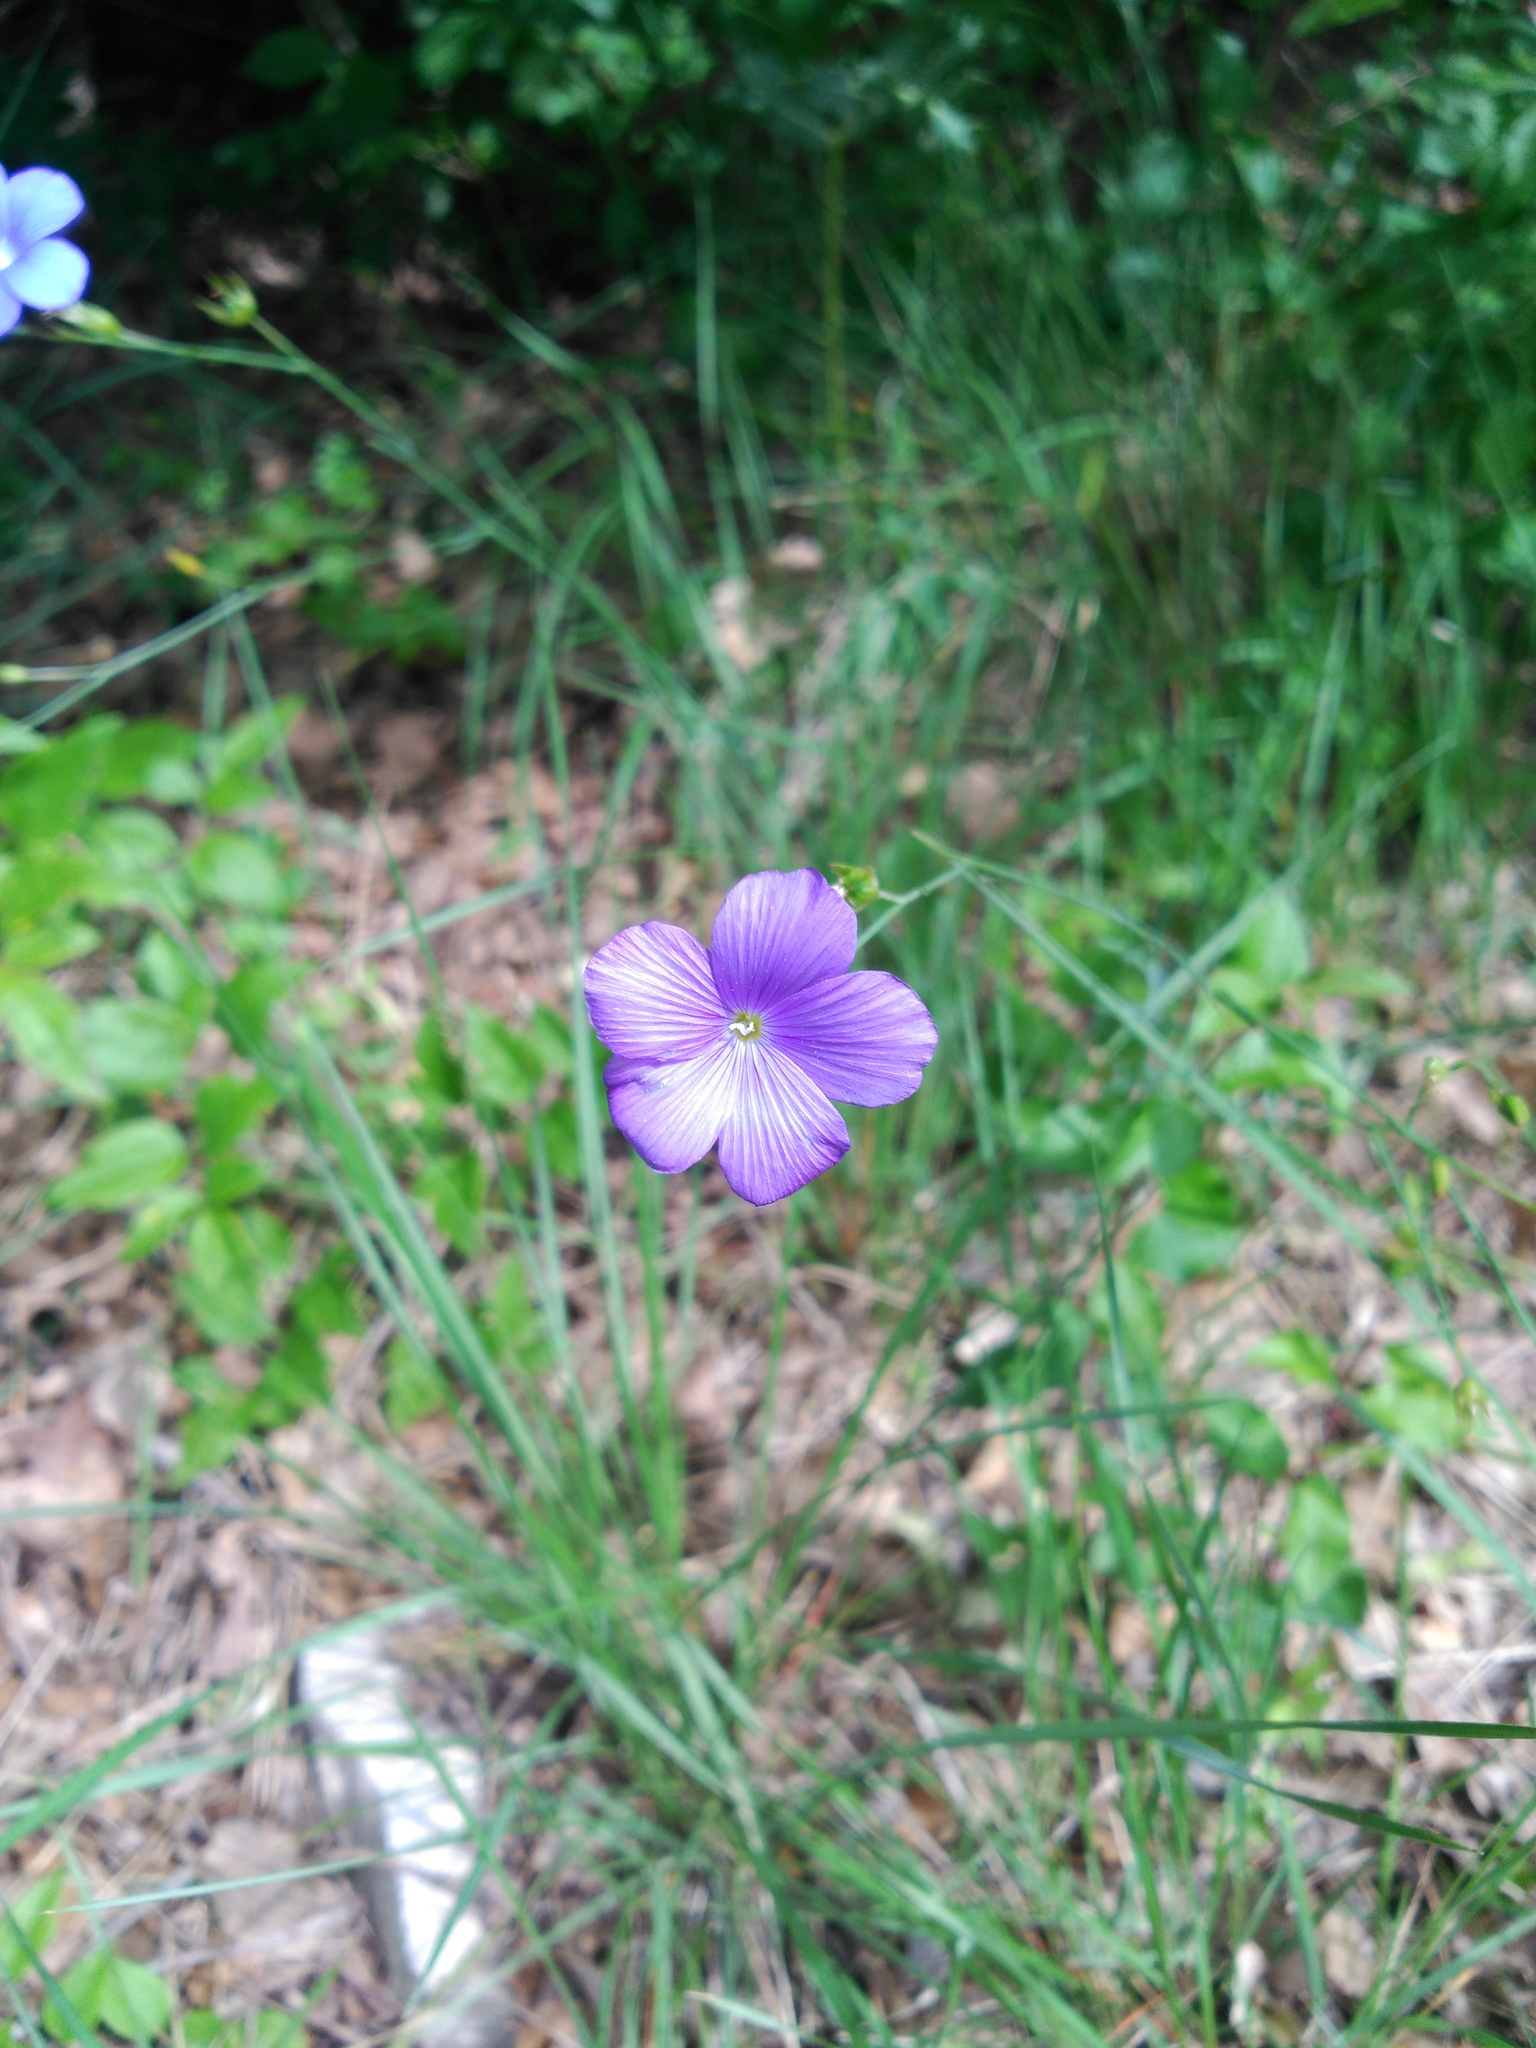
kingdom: Plantae
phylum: Tracheophyta
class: Magnoliopsida
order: Malpighiales
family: Linaceae
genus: Linum
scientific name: Linum narbonense
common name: Flax
